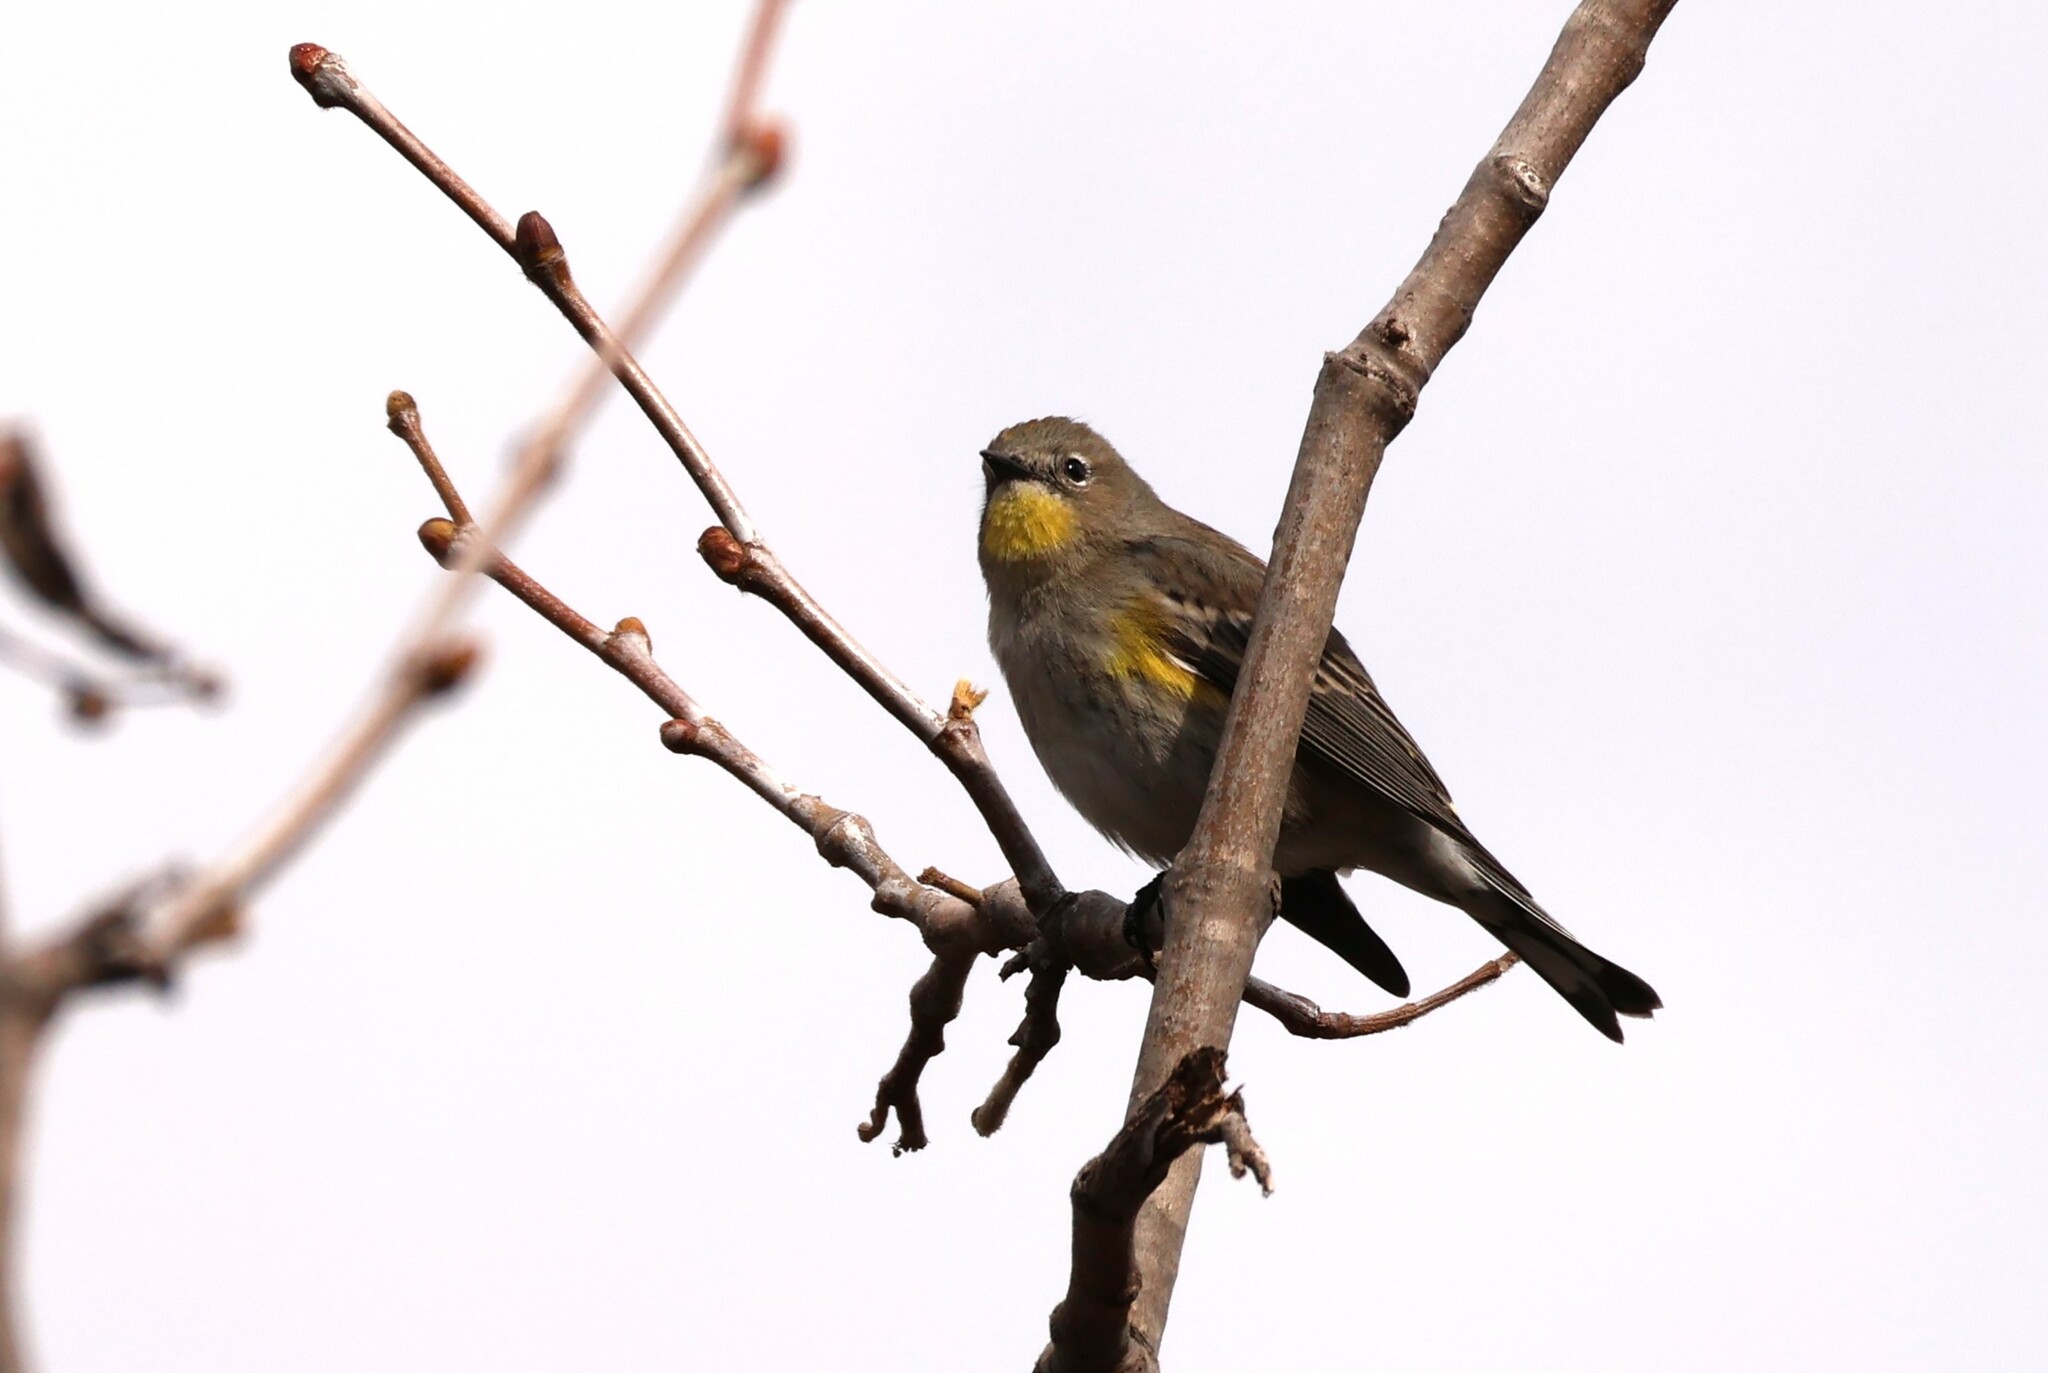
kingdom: Animalia
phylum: Chordata
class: Aves
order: Passeriformes
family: Parulidae
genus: Setophaga
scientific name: Setophaga auduboni
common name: Audubon's warbler
